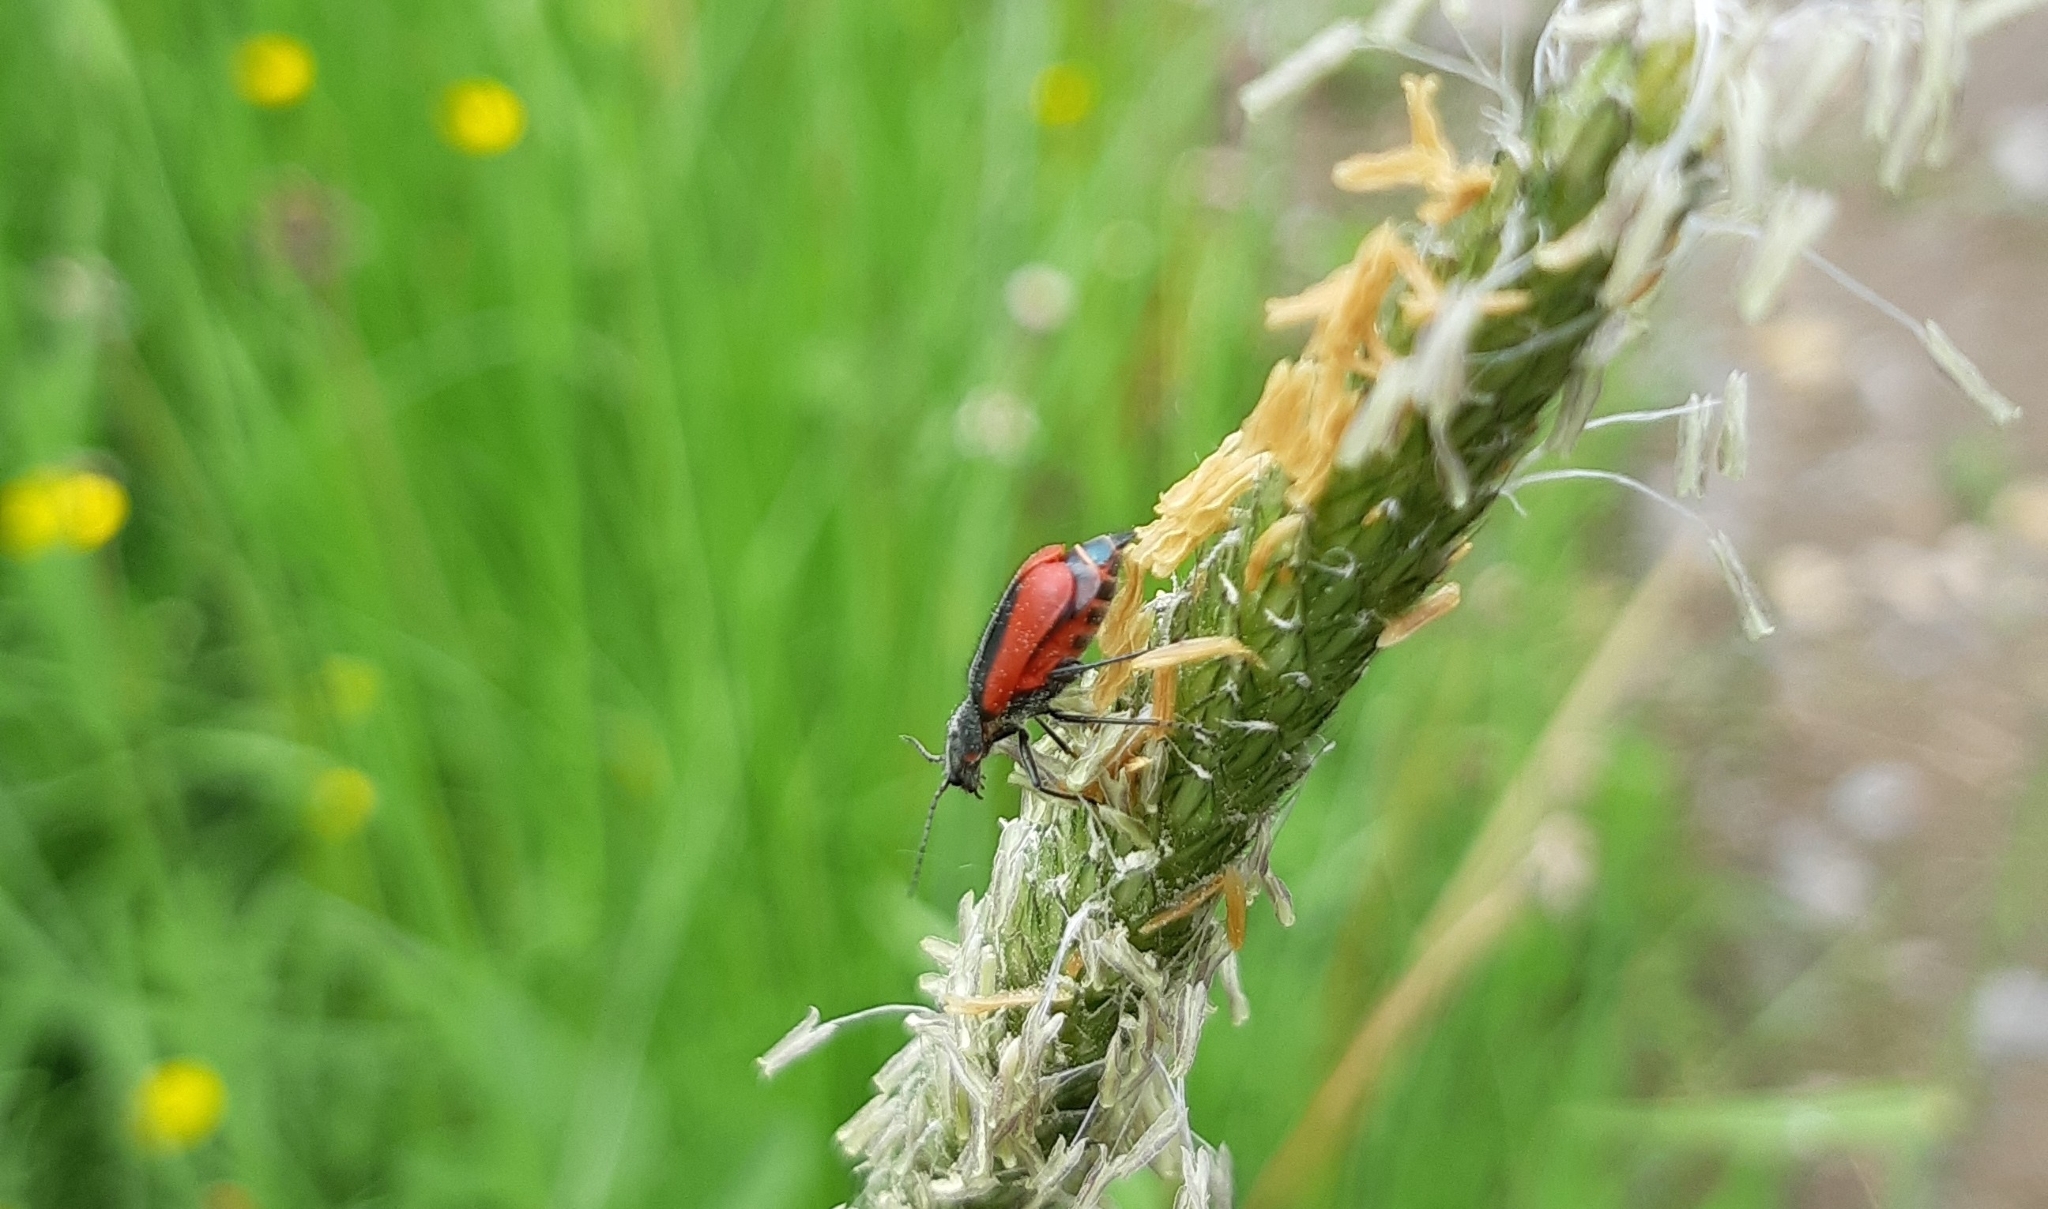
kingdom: Animalia
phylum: Arthropoda
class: Insecta
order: Coleoptera
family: Melyridae
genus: Malachius
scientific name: Malachius aeneus
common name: Scarlet malachite beetle
